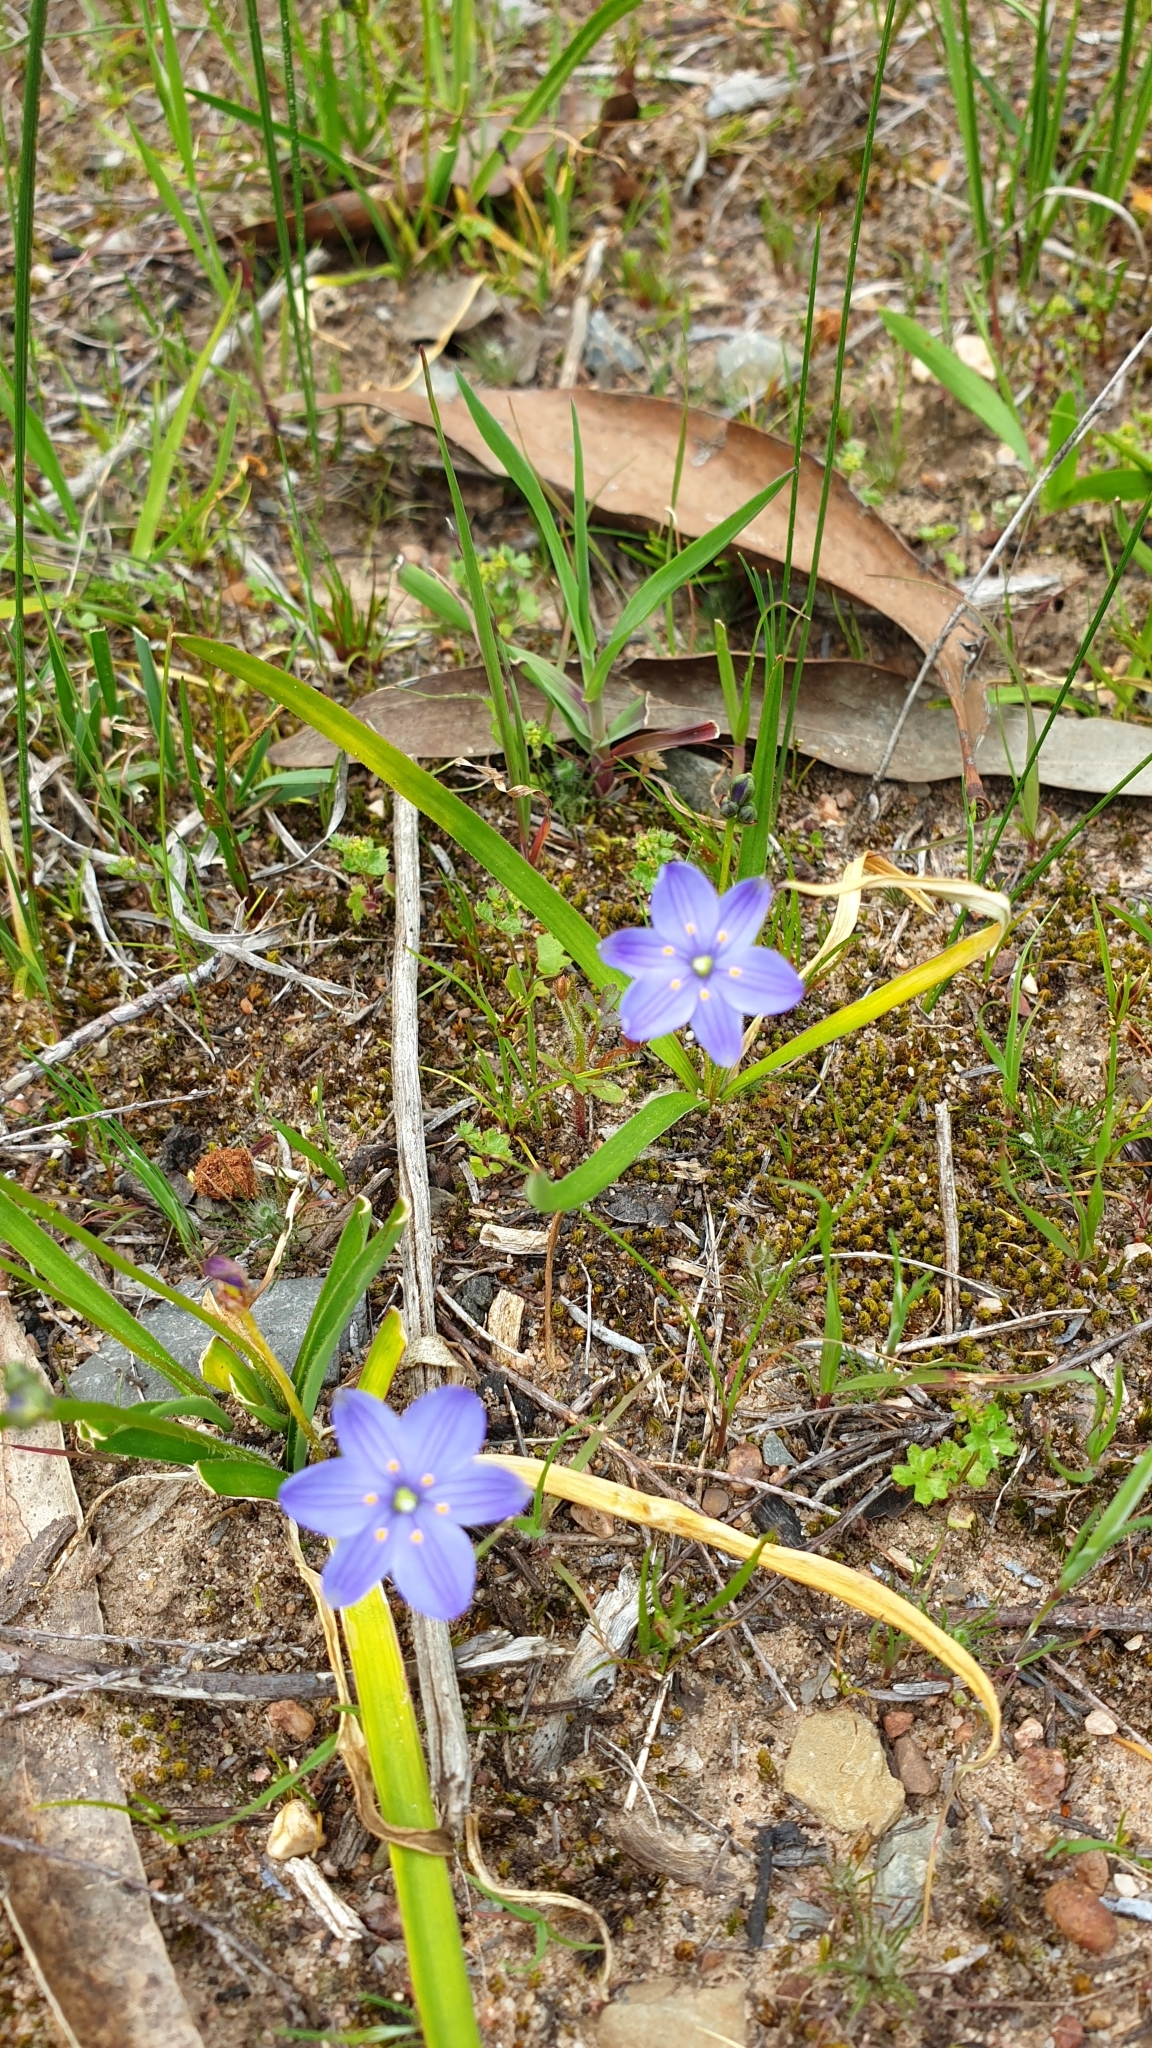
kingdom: Plantae
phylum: Tracheophyta
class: Liliopsida
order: Asparagales
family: Asphodelaceae
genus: Chamaescilla
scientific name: Chamaescilla corymbosa
